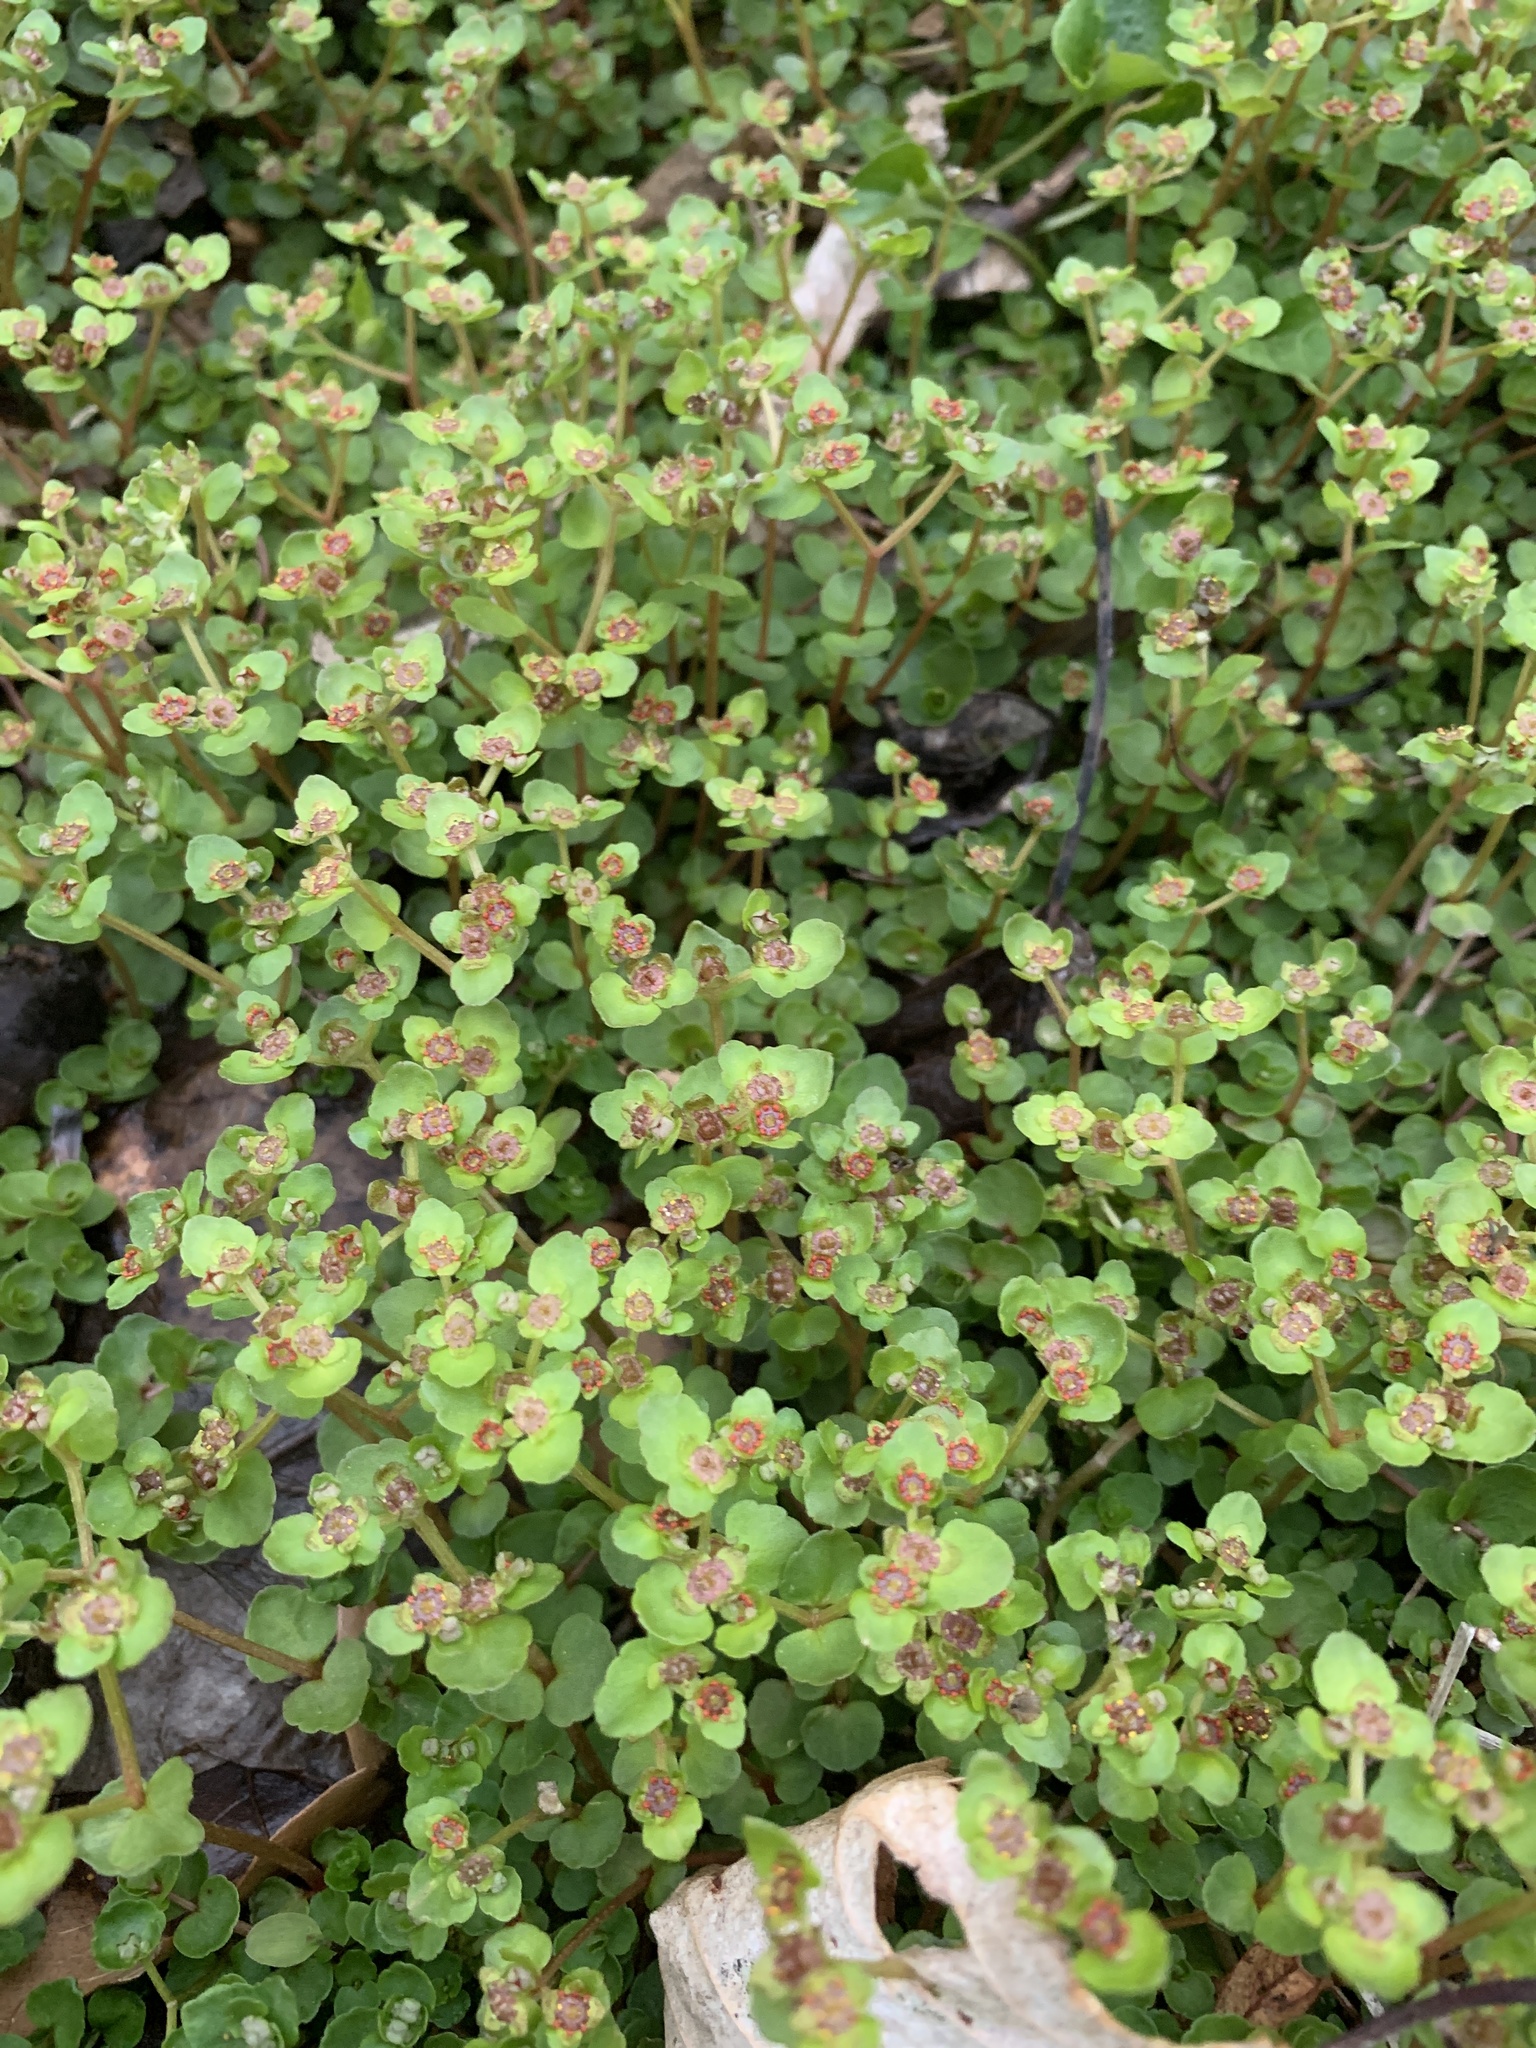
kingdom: Plantae
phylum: Tracheophyta
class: Magnoliopsida
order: Saxifragales
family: Saxifragaceae
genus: Chrysosplenium
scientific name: Chrysosplenium americanum
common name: American golden-saxifrage
